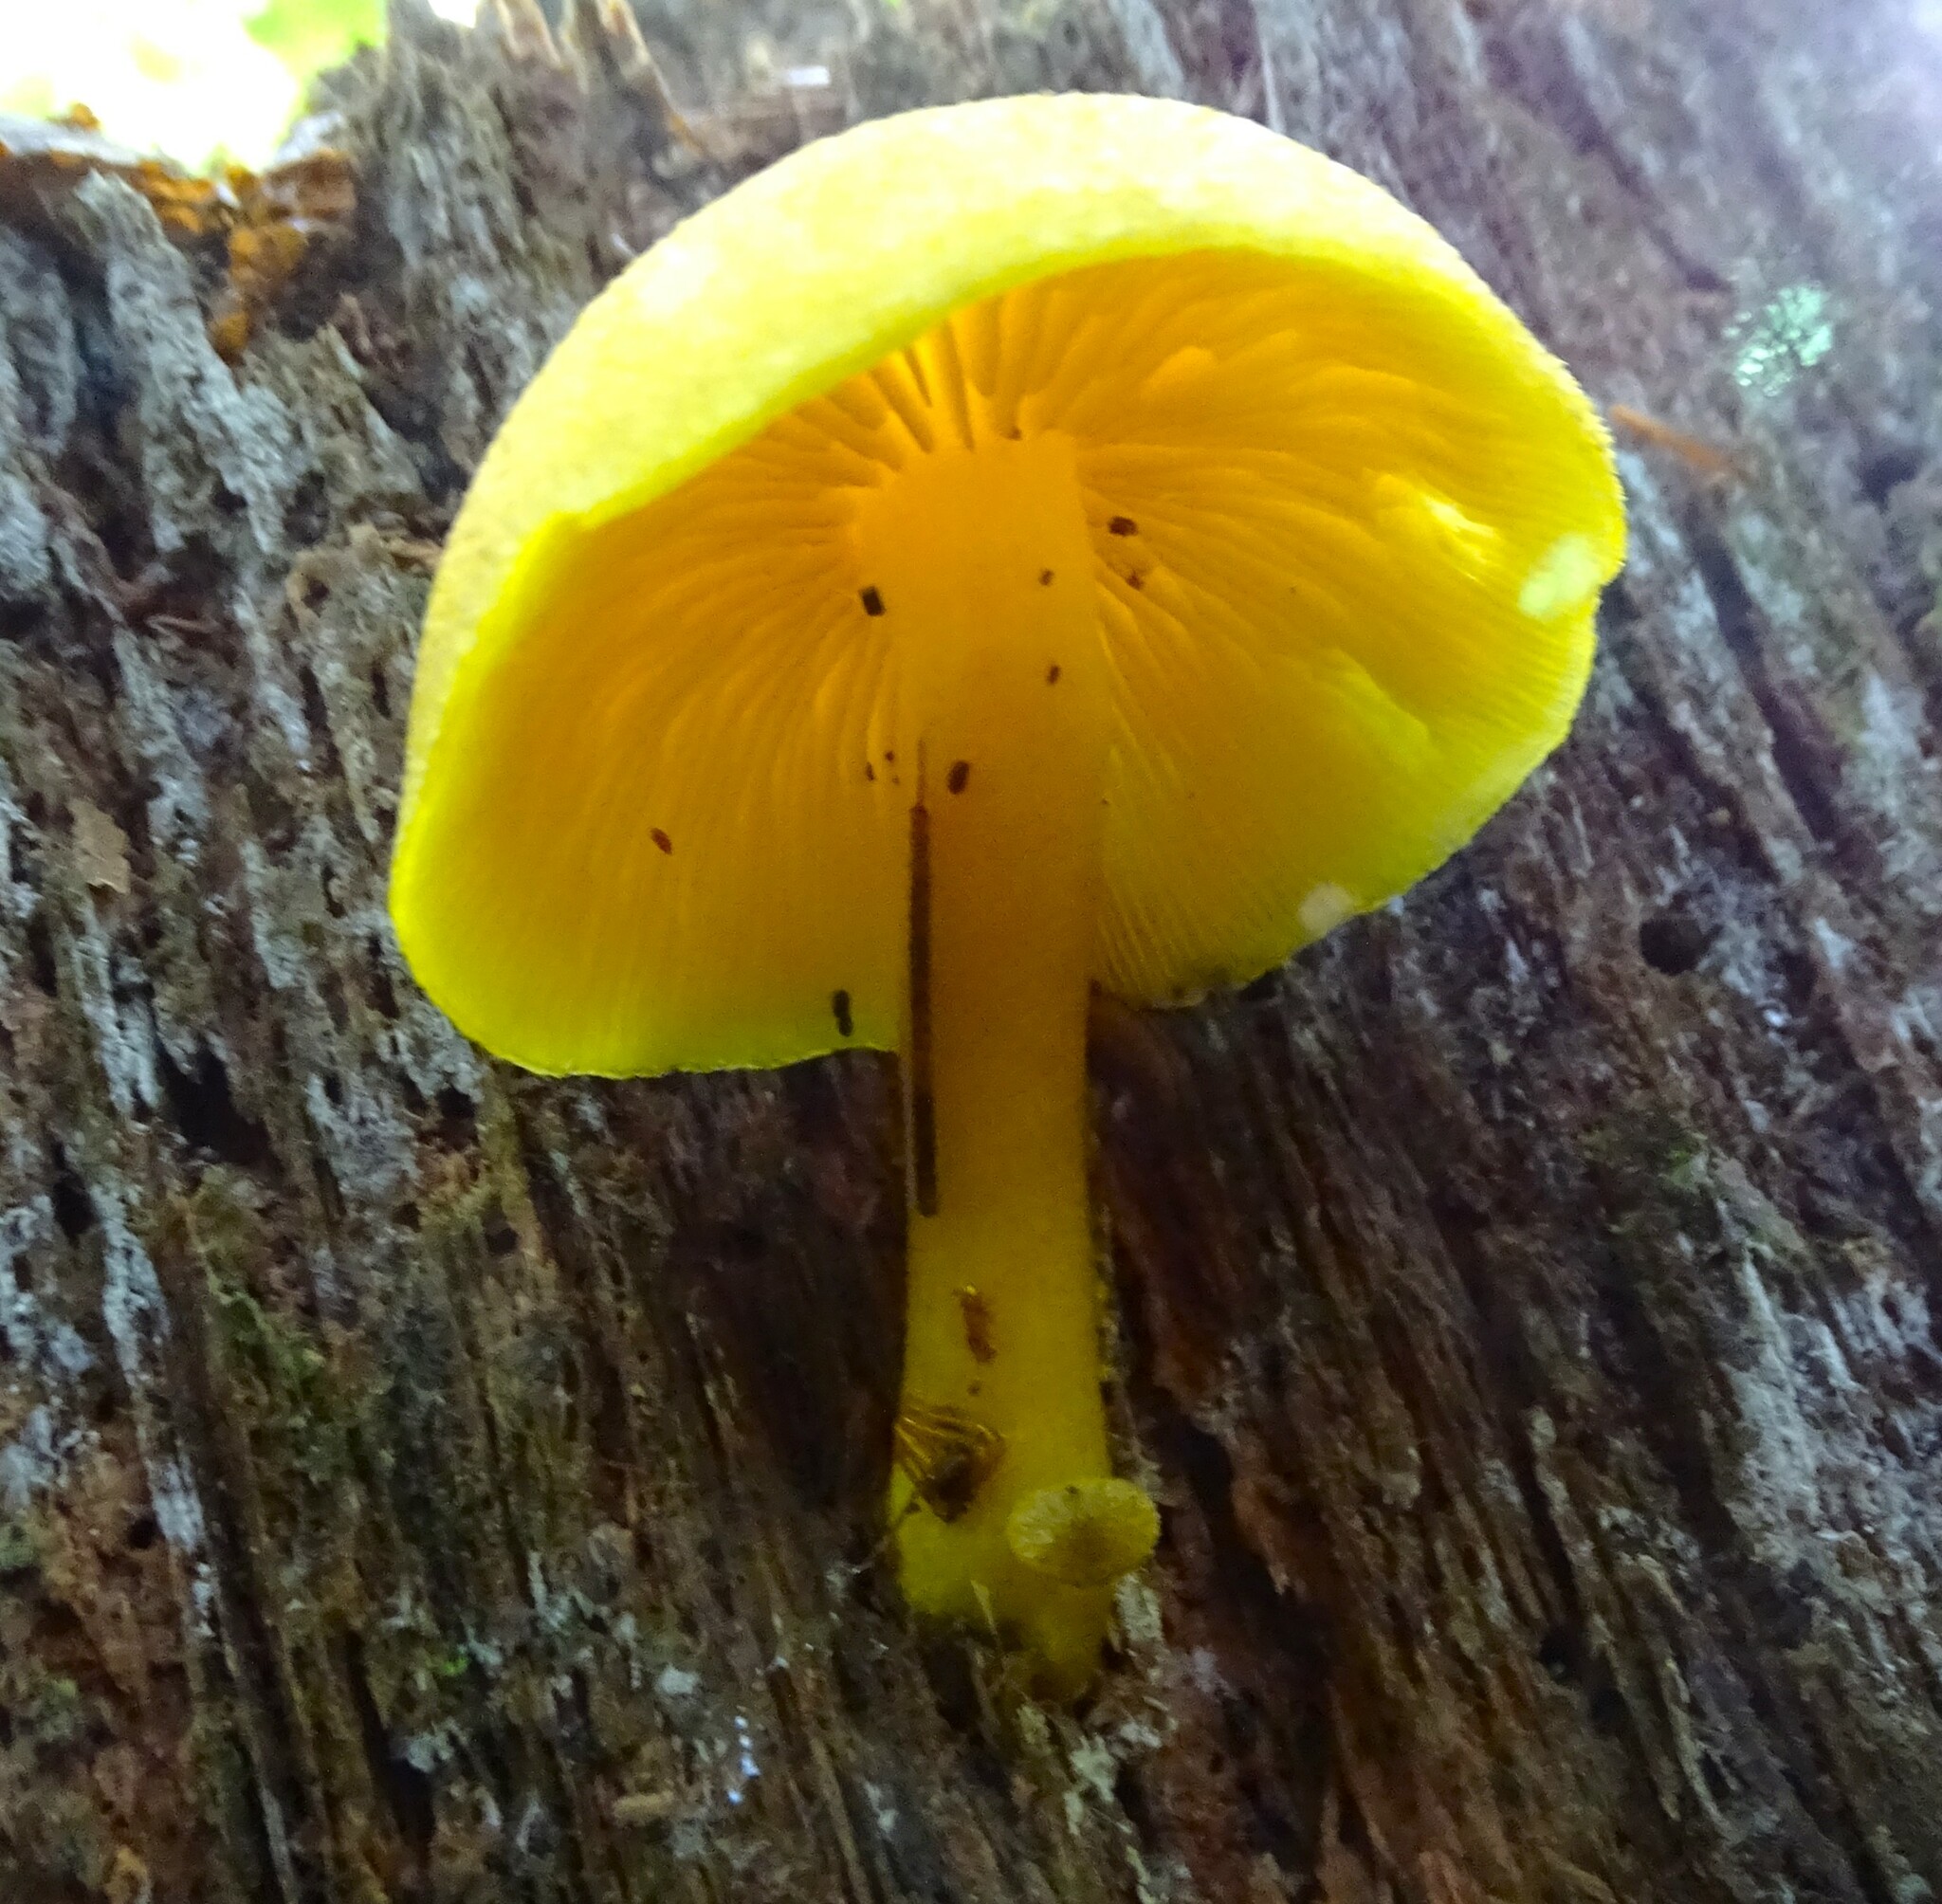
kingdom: Fungi
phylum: Basidiomycota
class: Agaricomycetes
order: Agaricales
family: Tricholomataceae
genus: Tricholomopsis
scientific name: Tricholomopsis decora
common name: Prunes and custard
